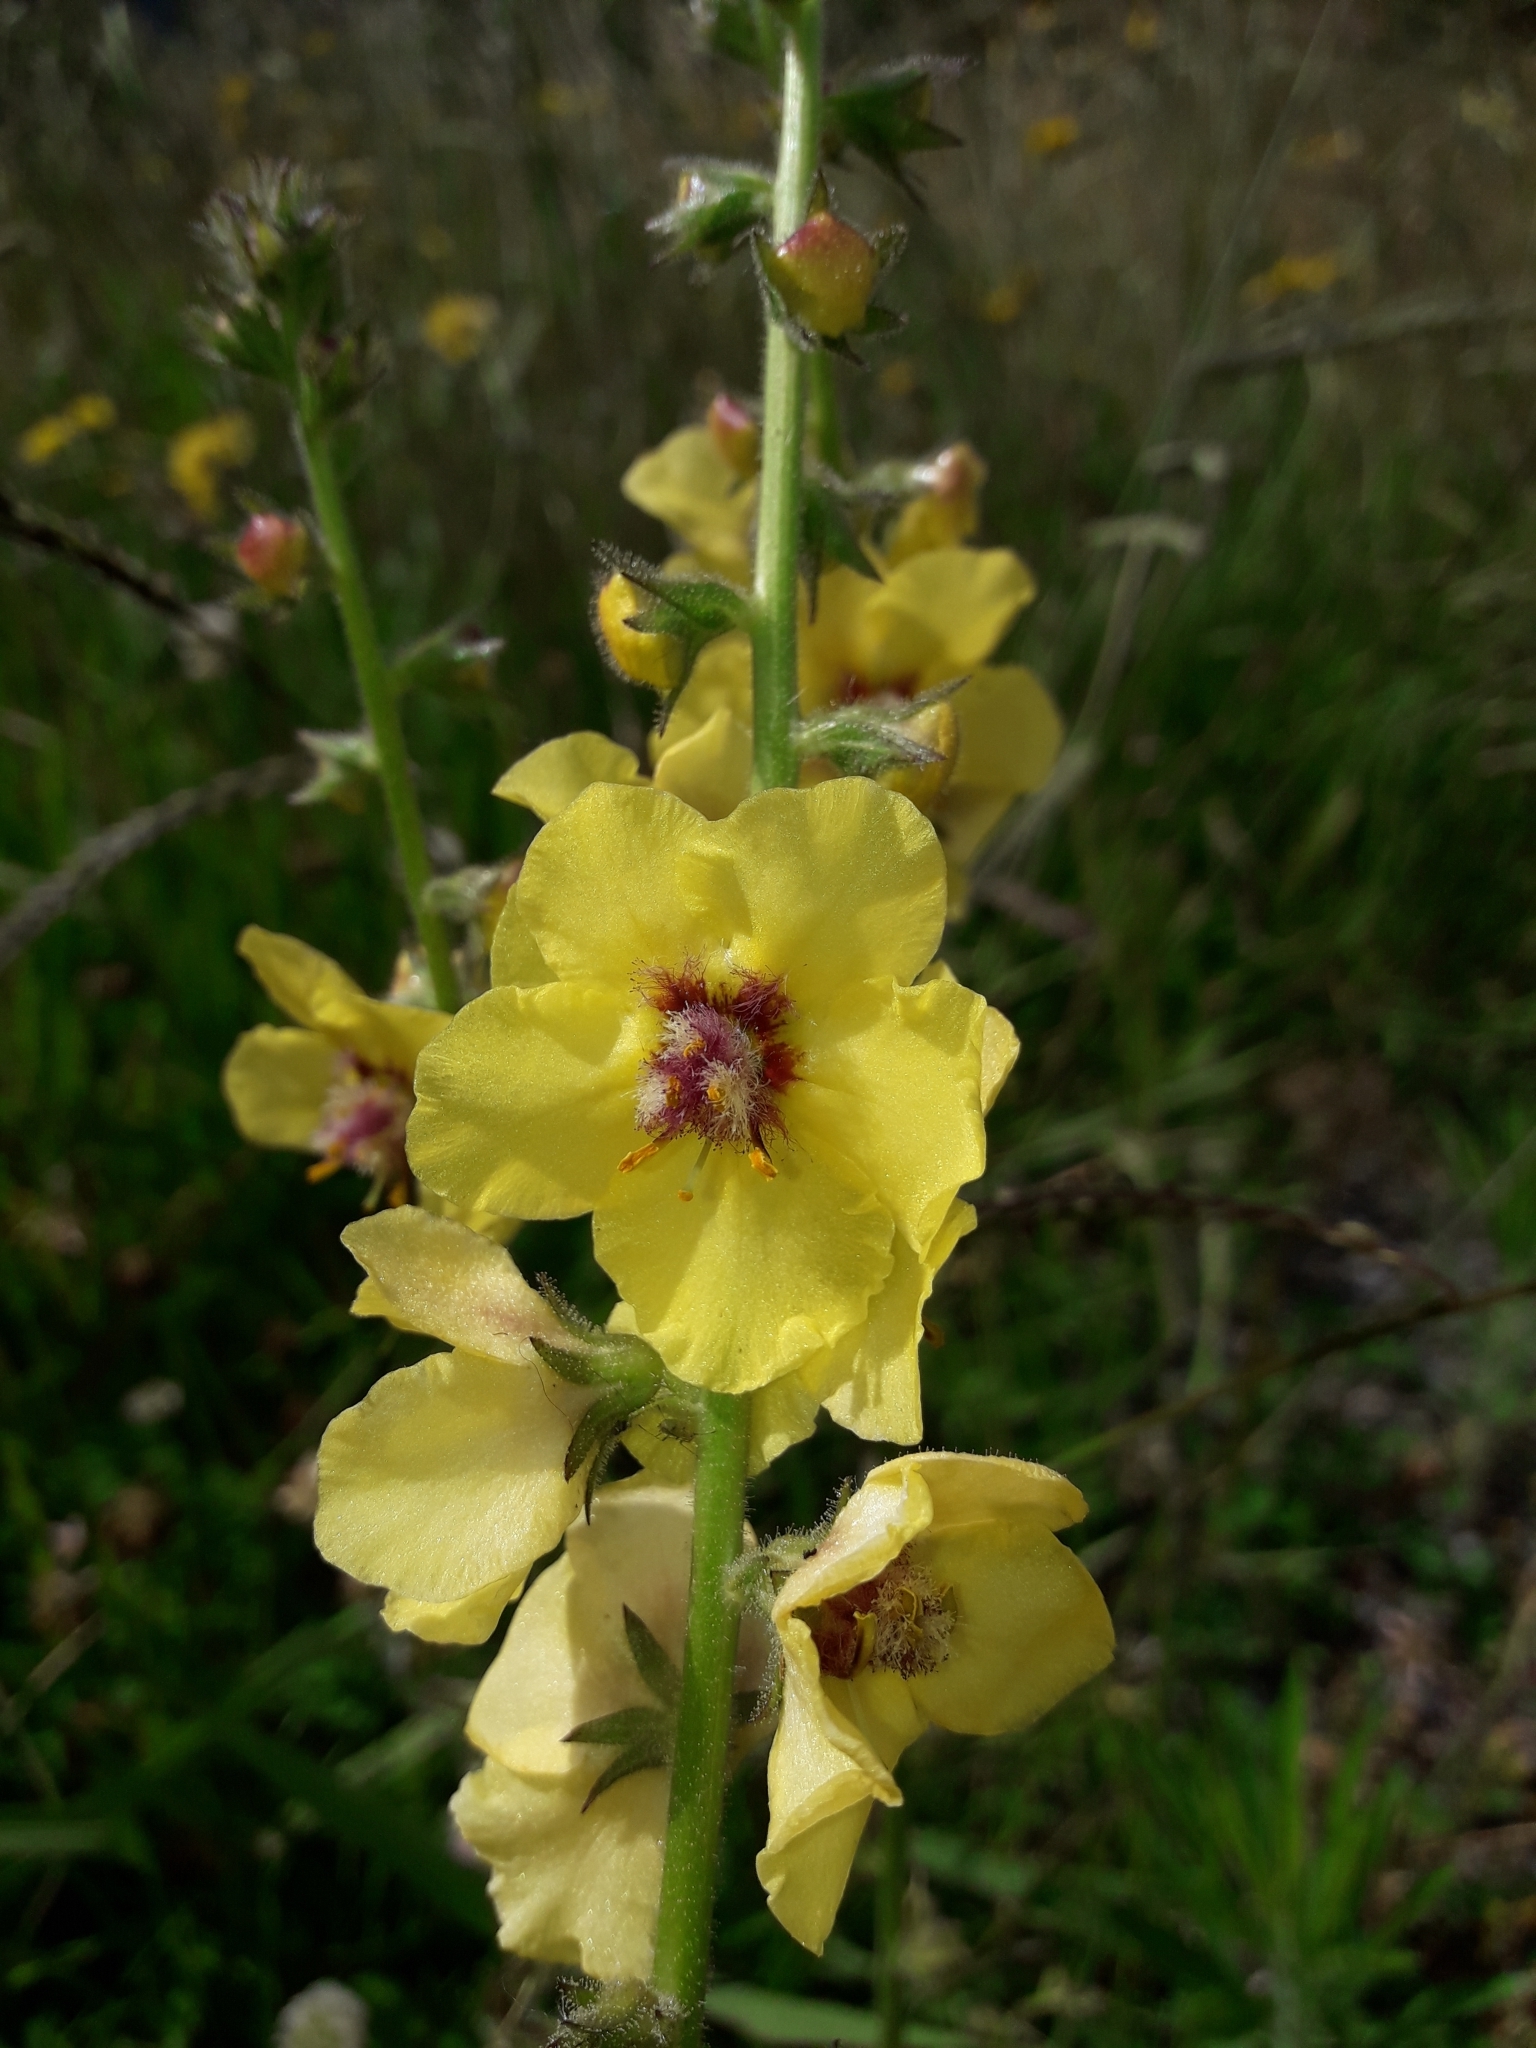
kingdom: Plantae
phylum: Tracheophyta
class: Magnoliopsida
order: Lamiales
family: Scrophulariaceae
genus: Verbascum
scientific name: Verbascum virgatum
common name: Twiggy mullein
